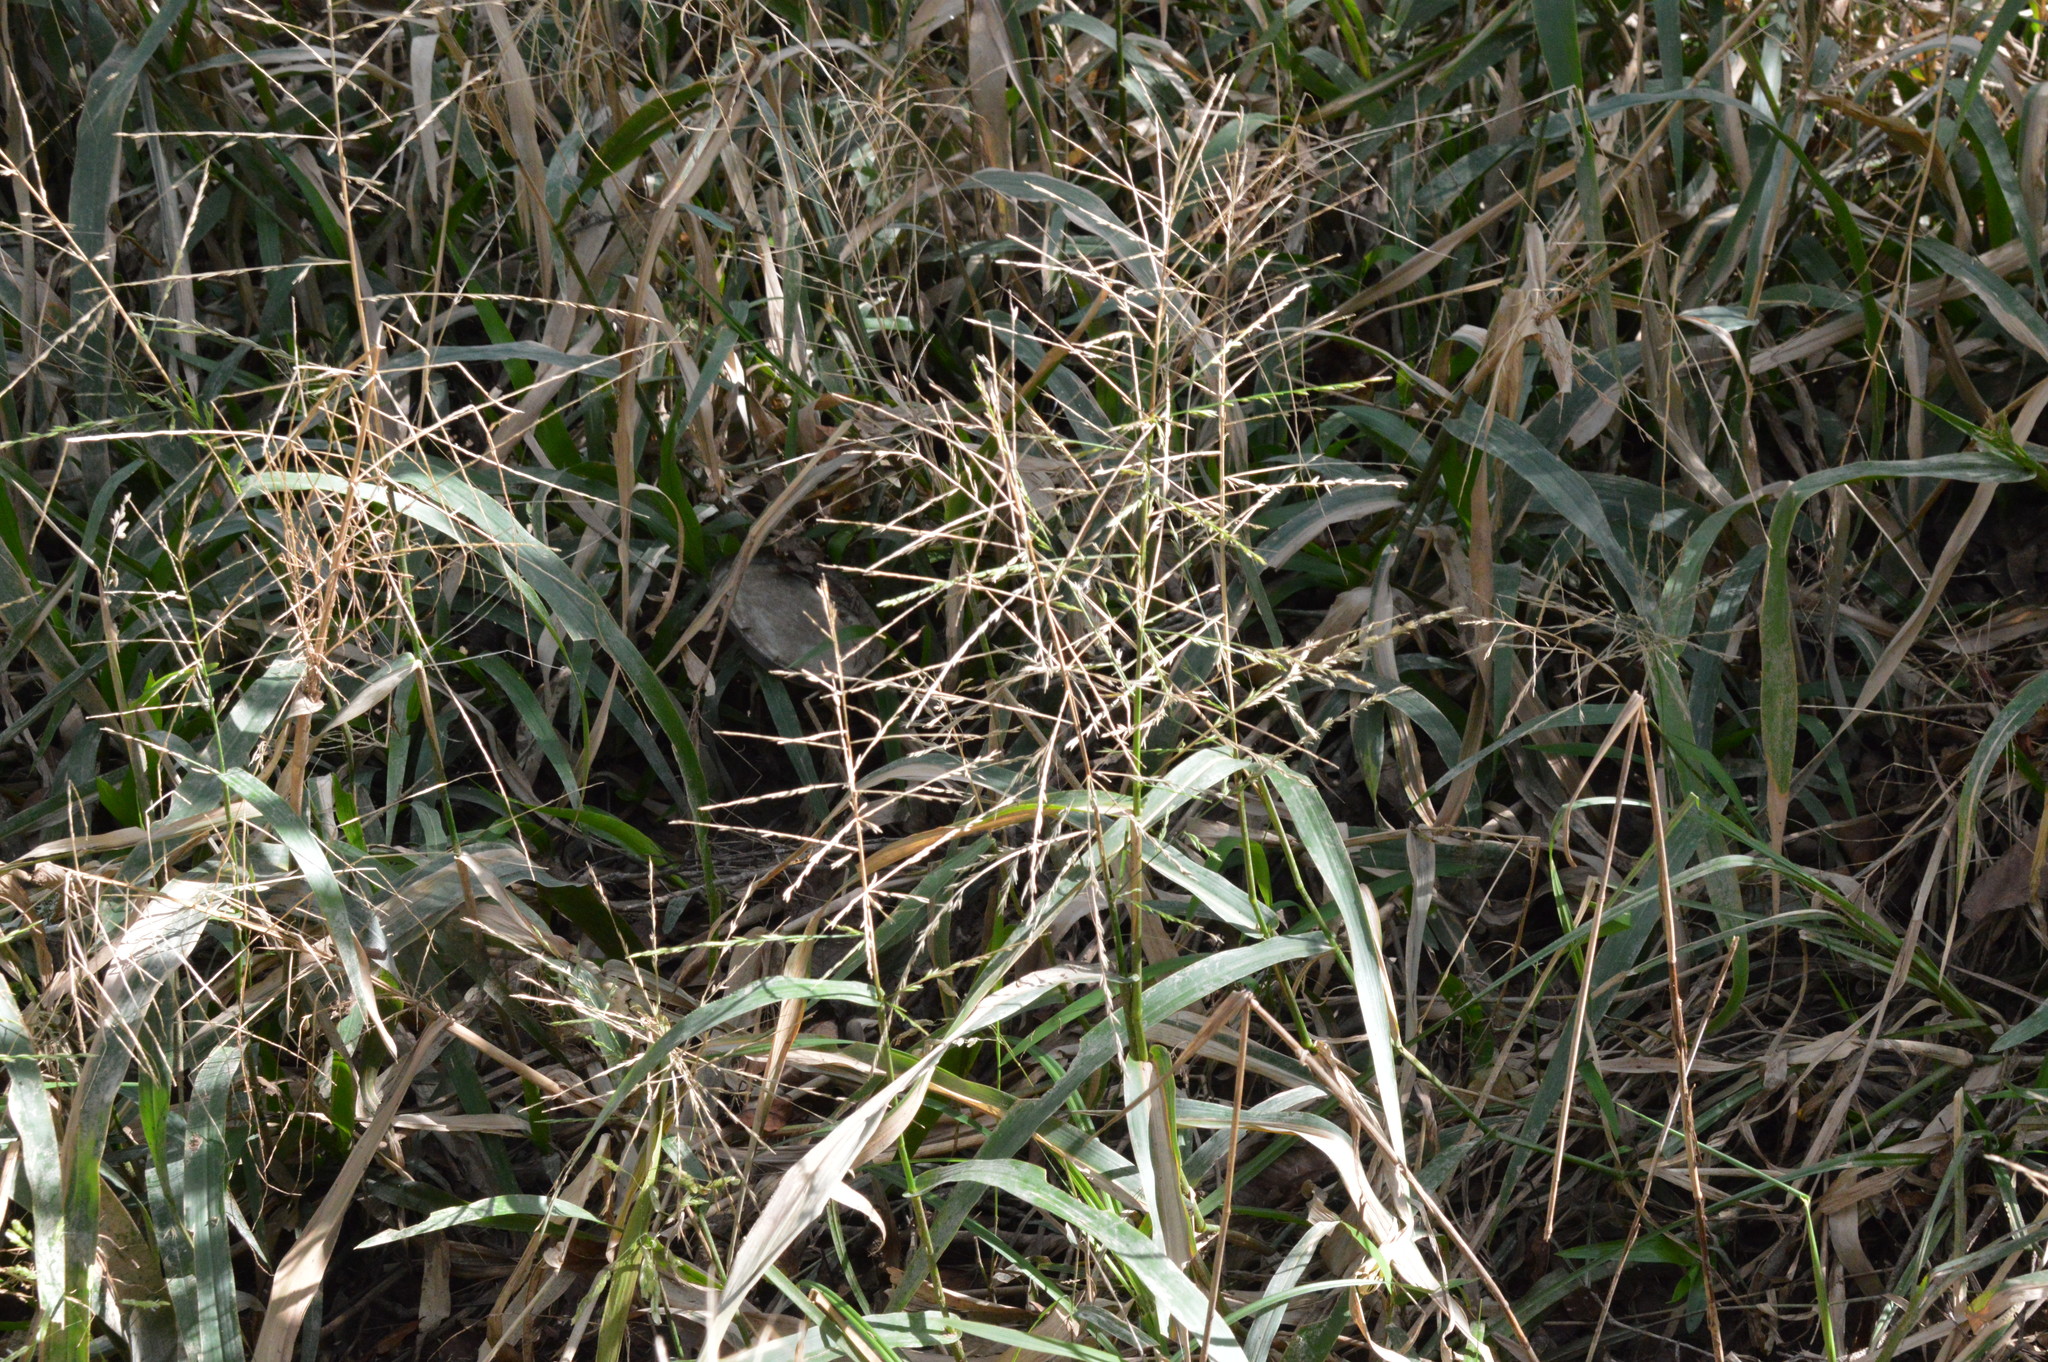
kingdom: Plantae
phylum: Tracheophyta
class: Liliopsida
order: Poales
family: Poaceae
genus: Panicum
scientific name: Panicum gymnocarpon
